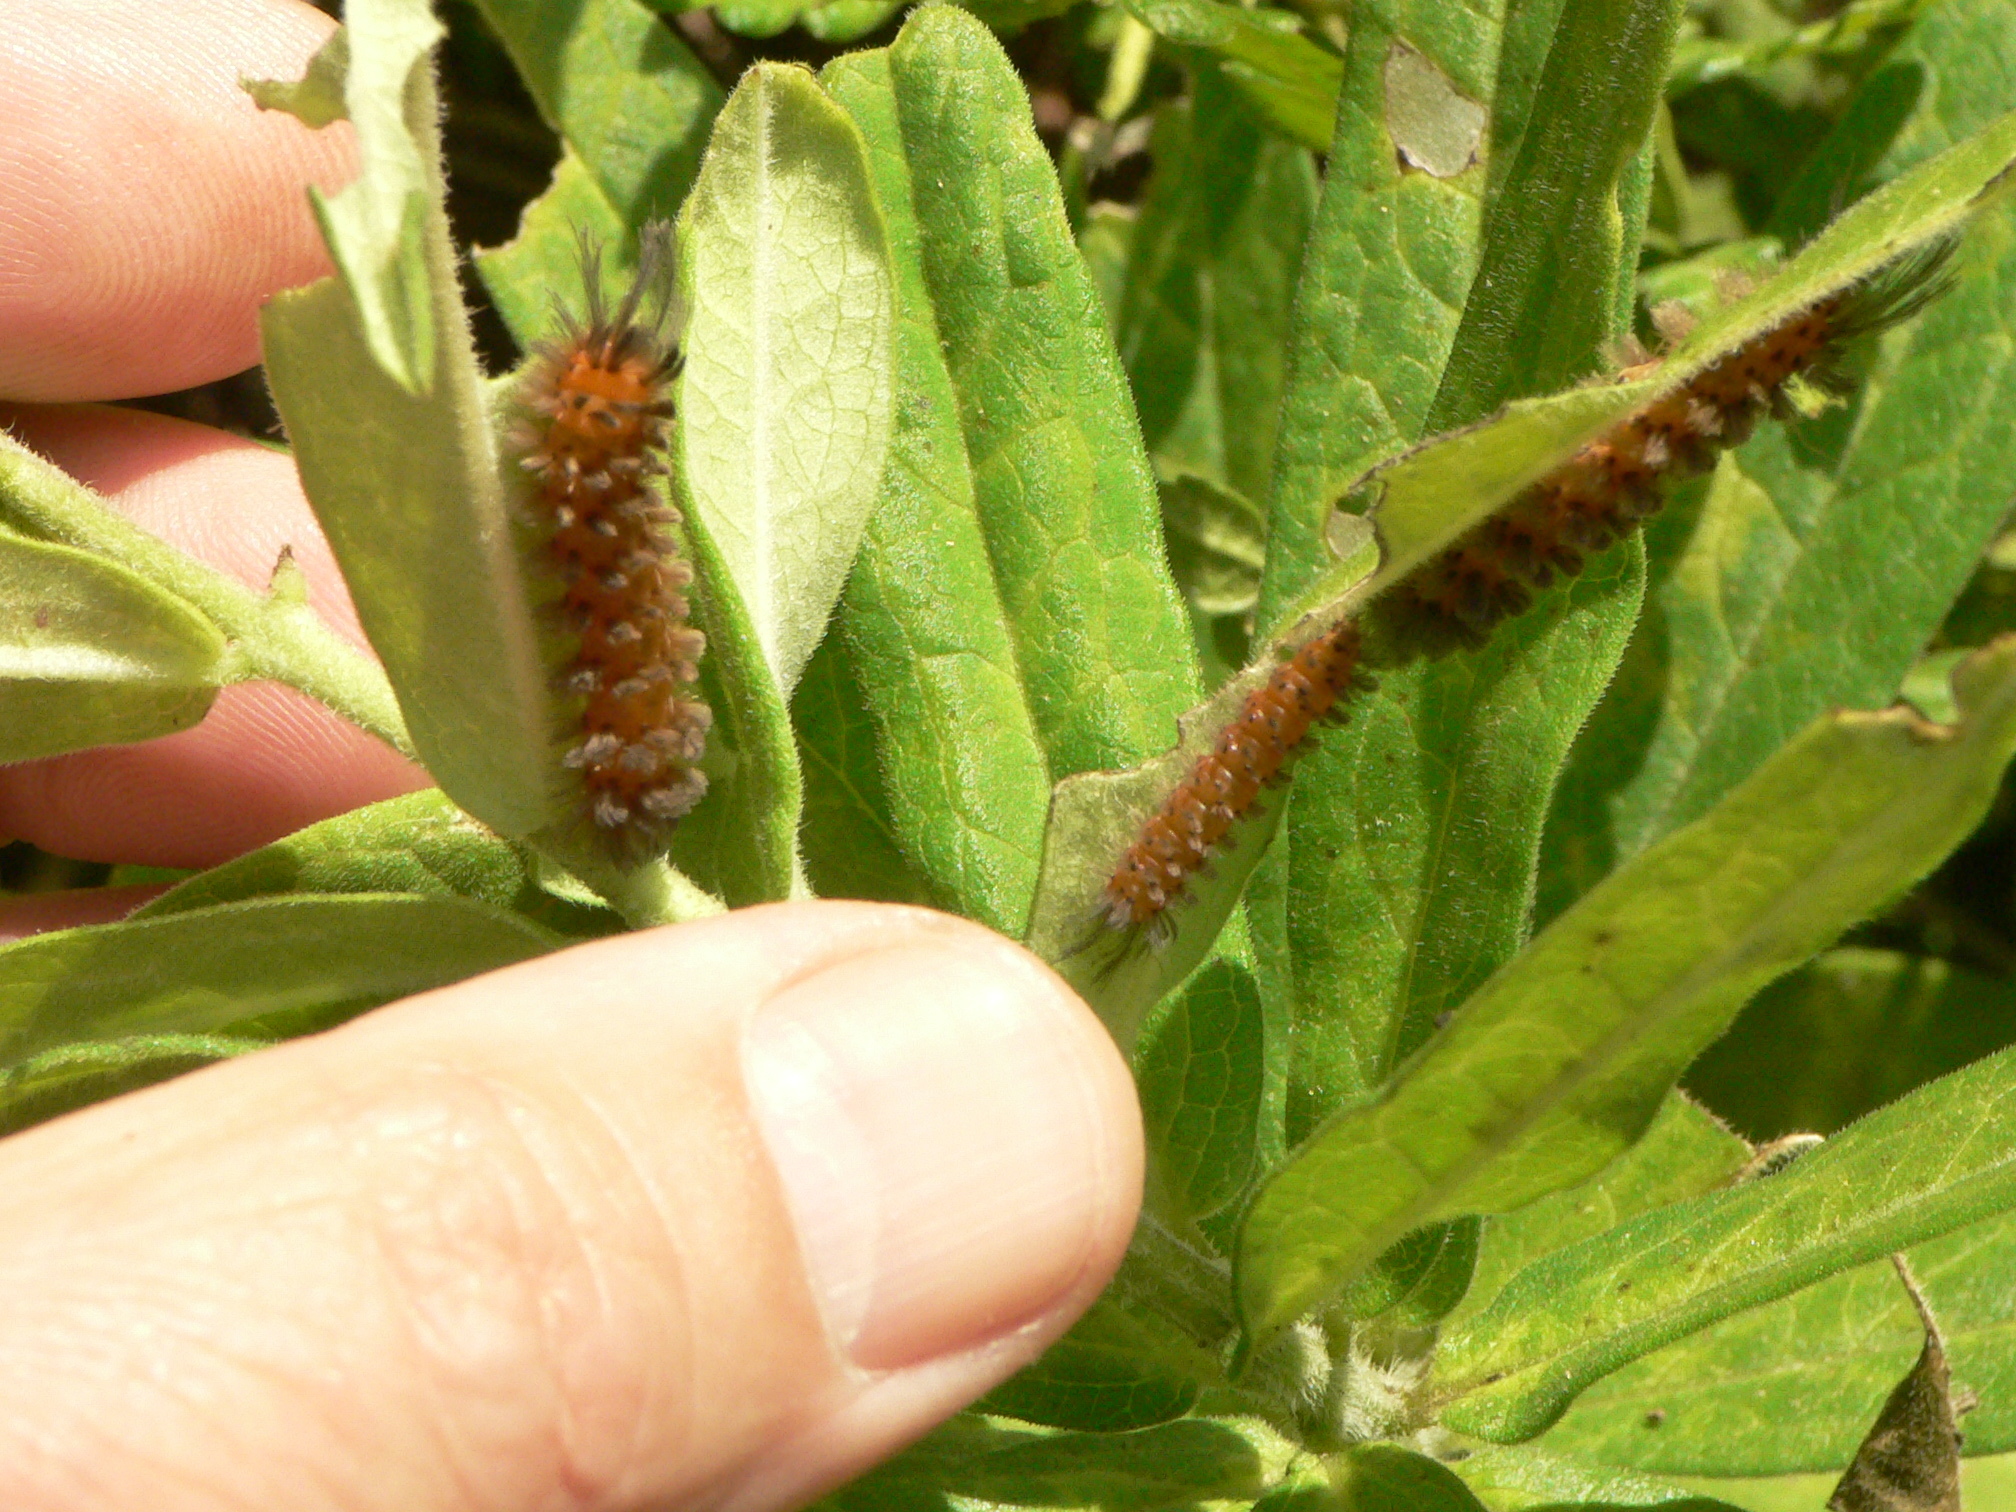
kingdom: Animalia
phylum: Arthropoda
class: Insecta
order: Lepidoptera
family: Erebidae
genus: Cycnia
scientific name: Cycnia collaris
